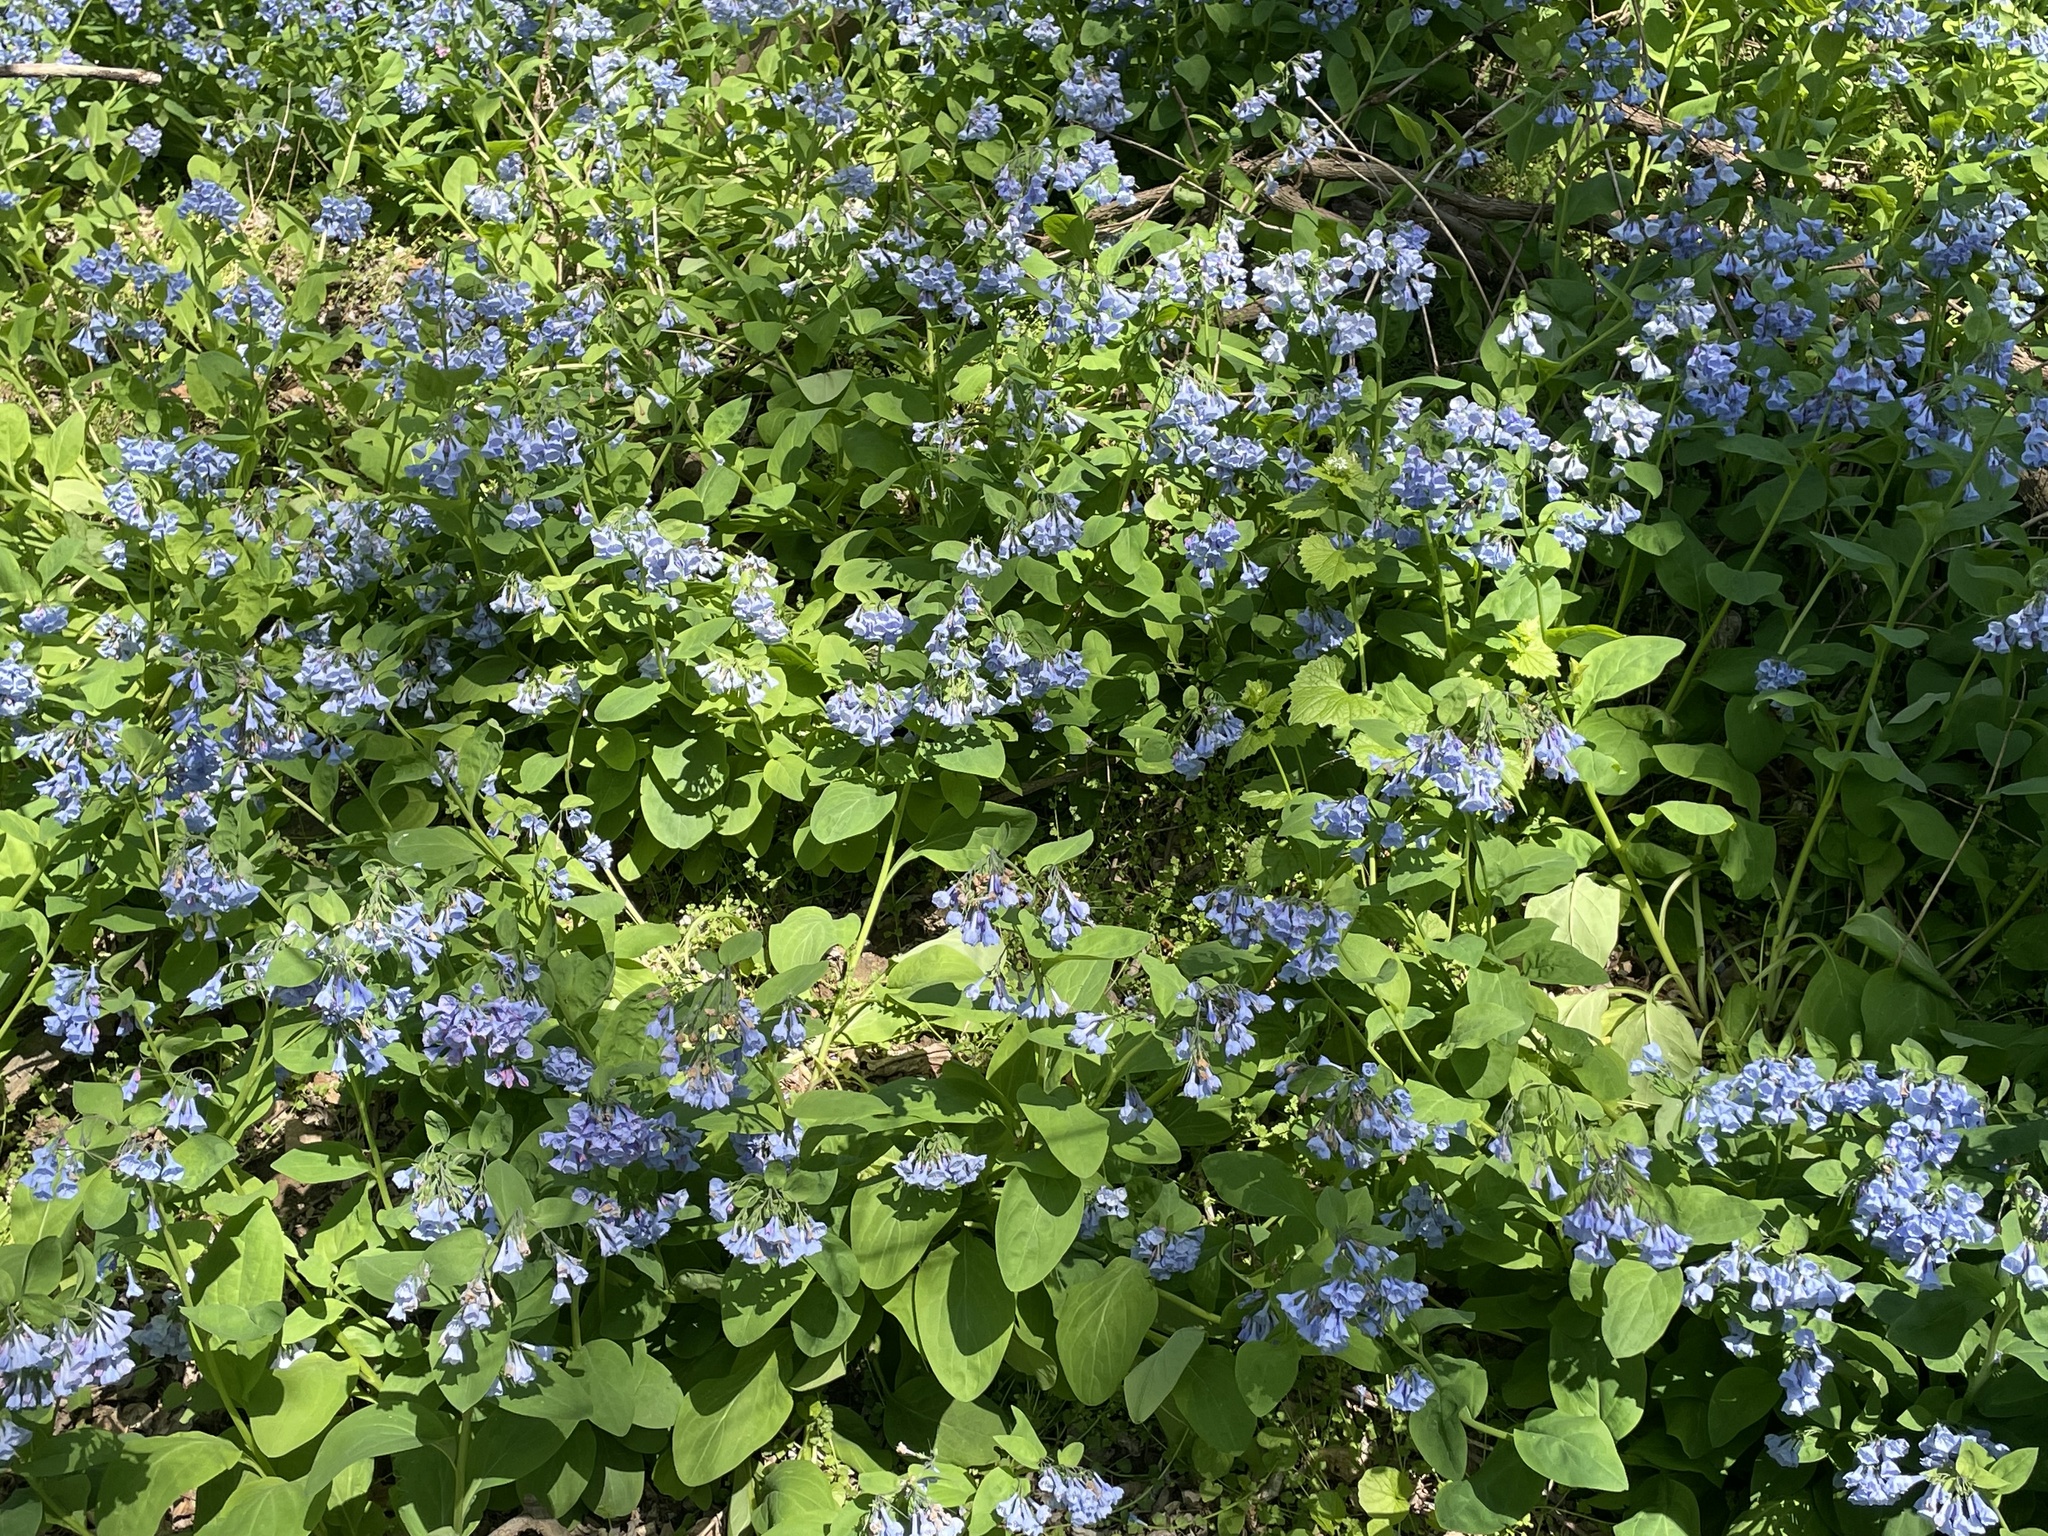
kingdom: Plantae
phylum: Tracheophyta
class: Magnoliopsida
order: Boraginales
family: Boraginaceae
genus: Mertensia
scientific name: Mertensia virginica
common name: Virginia bluebells
